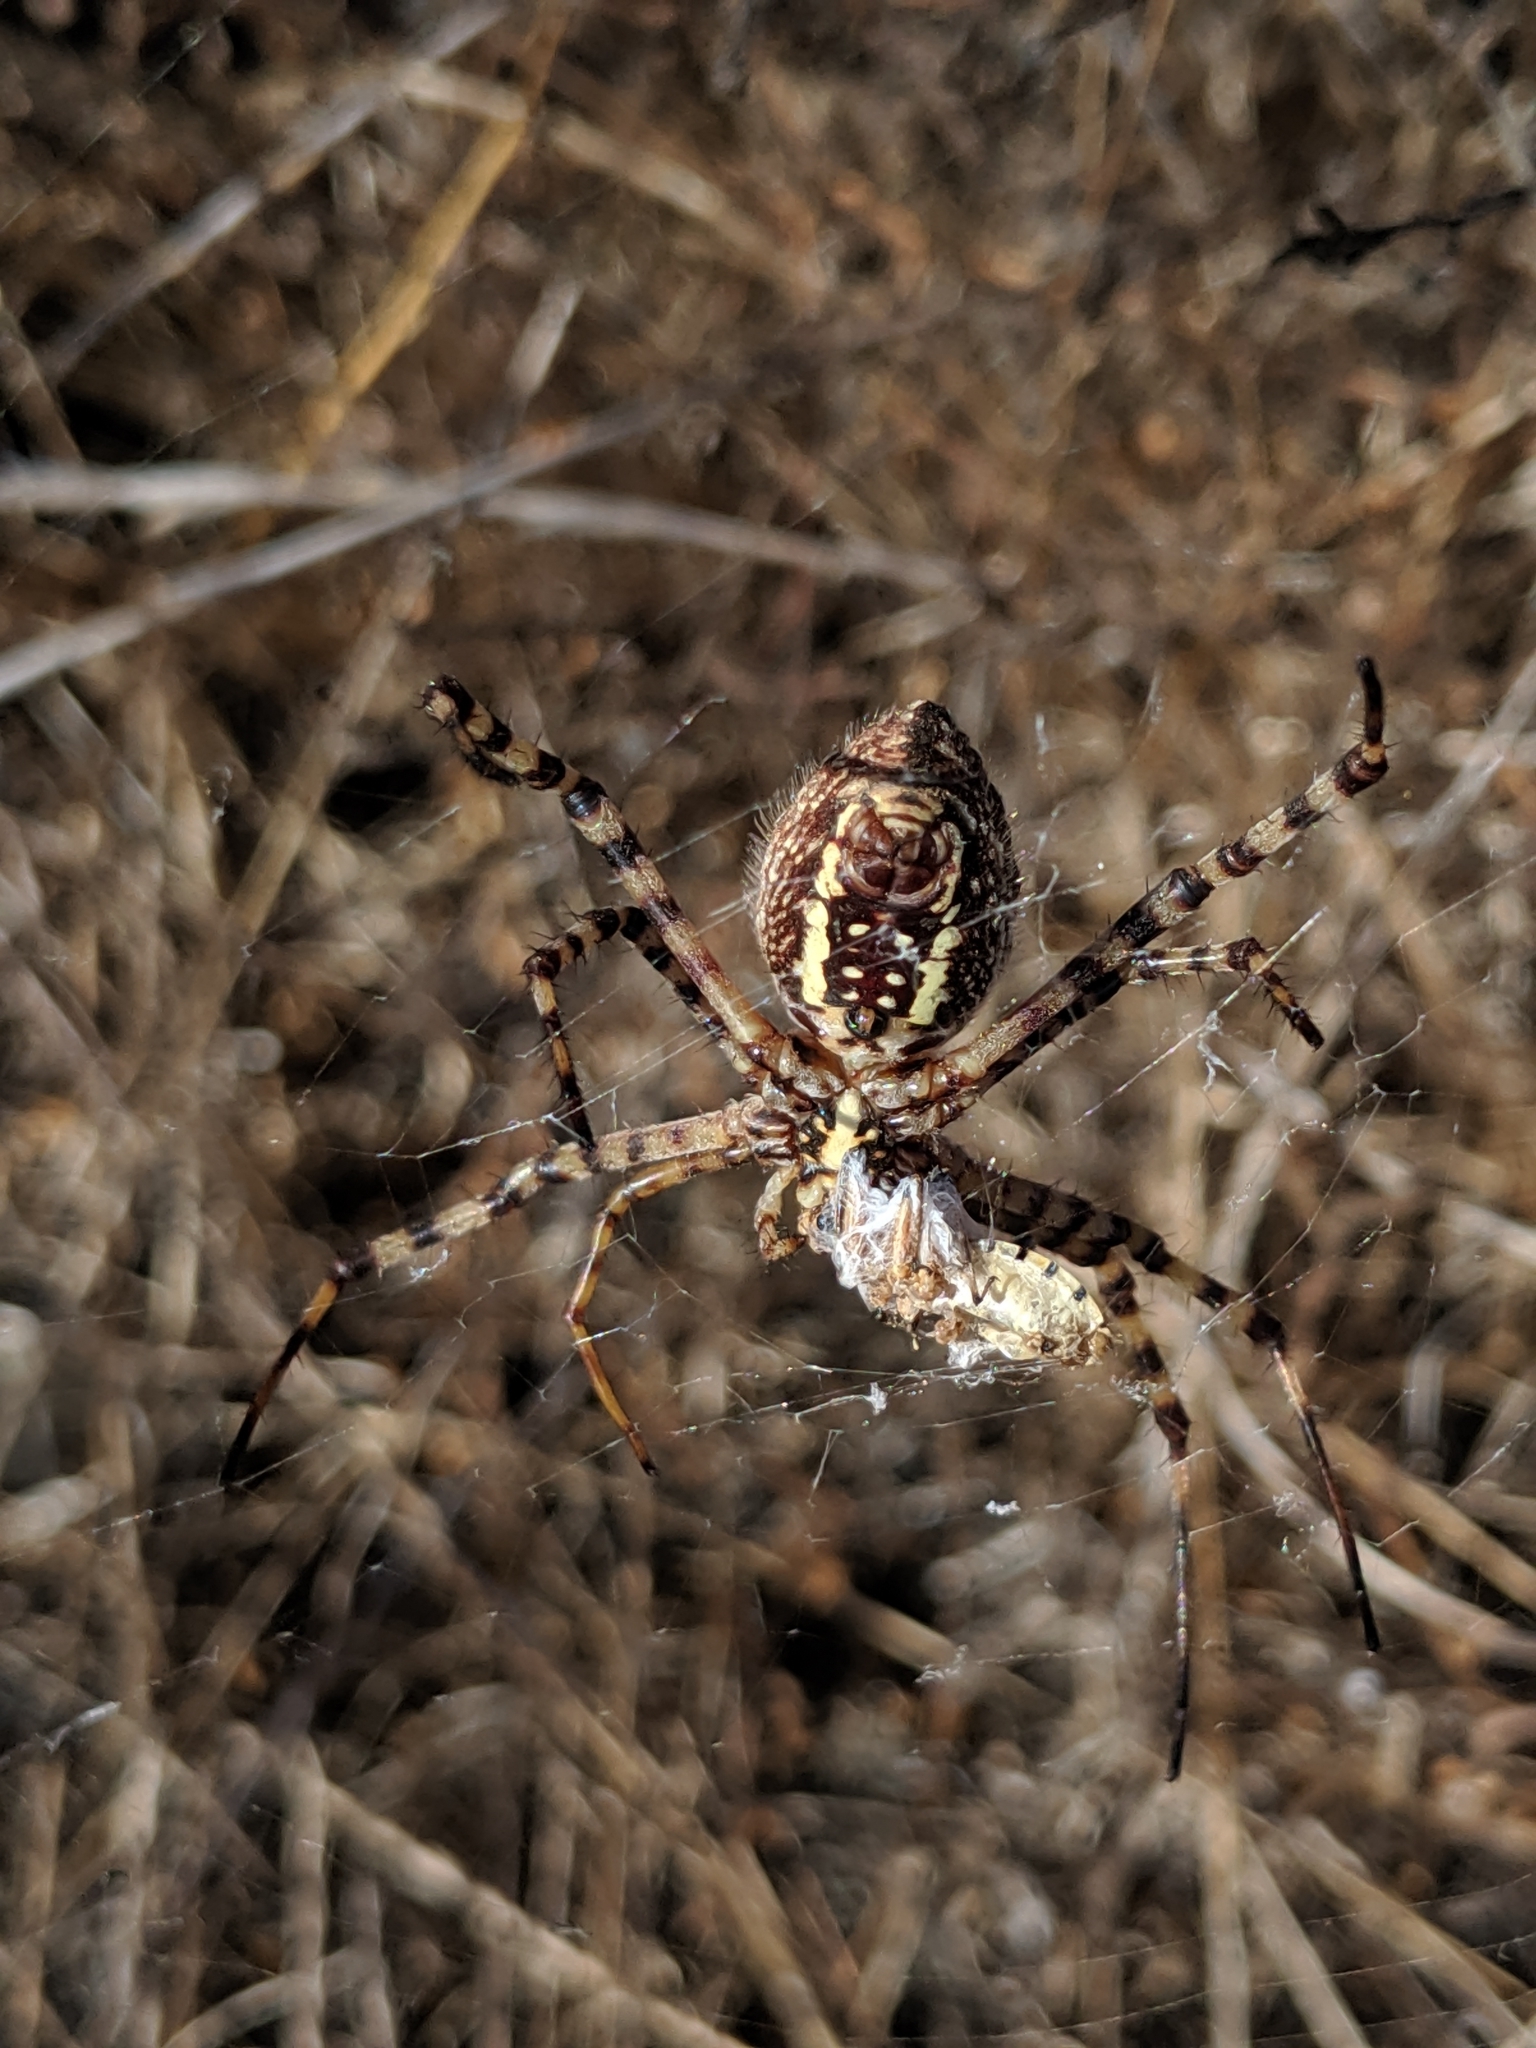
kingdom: Animalia
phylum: Arthropoda
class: Arachnida
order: Araneae
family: Araneidae
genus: Argiope
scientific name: Argiope trifasciata
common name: Banded garden spider
